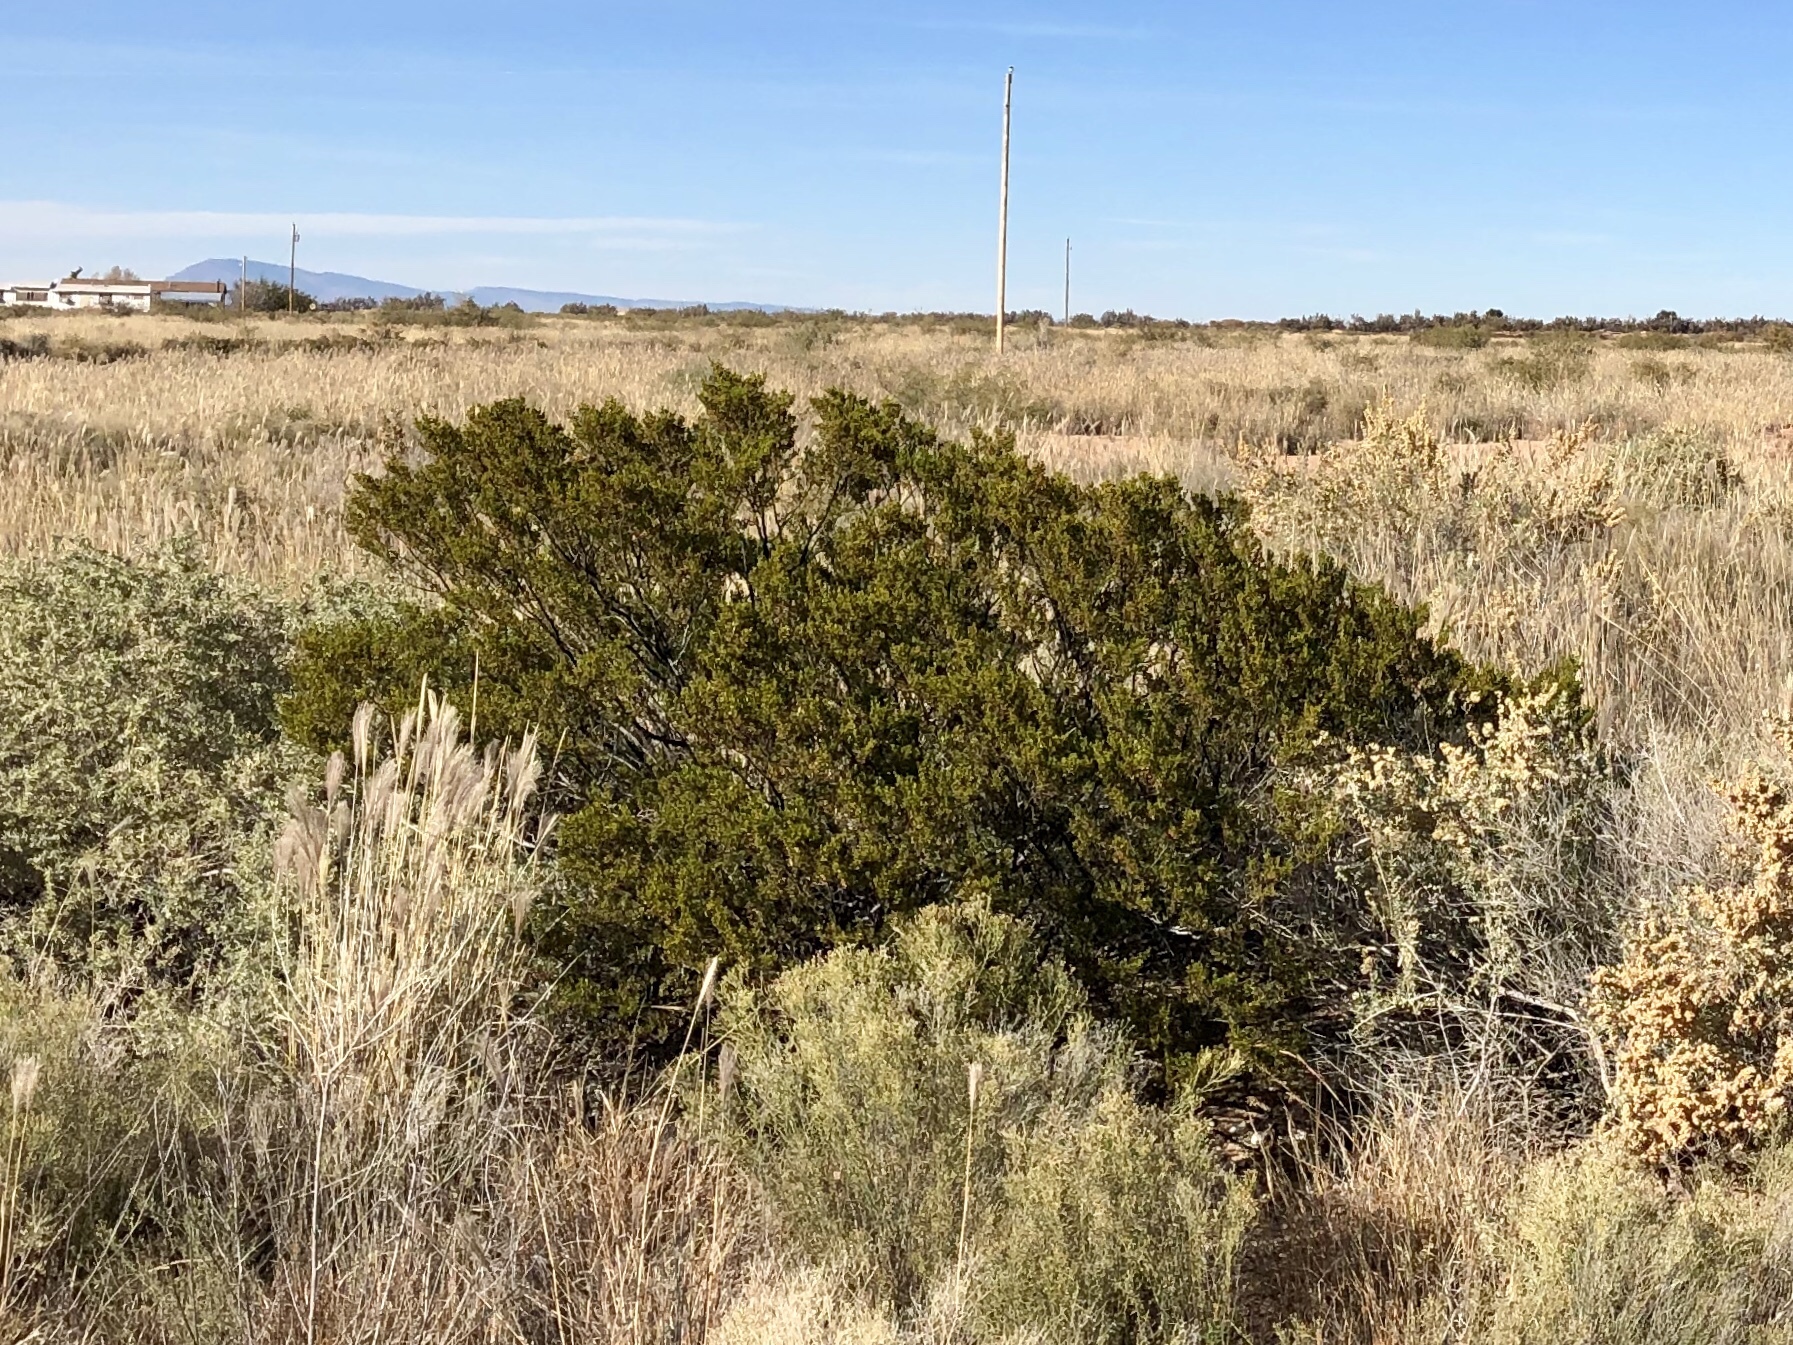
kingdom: Plantae
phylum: Tracheophyta
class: Magnoliopsida
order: Zygophyllales
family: Zygophyllaceae
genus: Larrea
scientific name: Larrea tridentata
